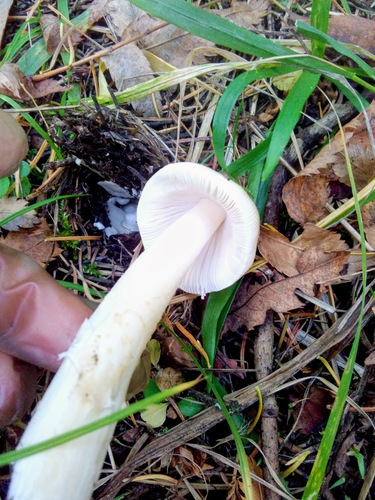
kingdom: Fungi
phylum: Basidiomycota
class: Agaricomycetes
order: Agaricales
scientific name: Agaricales
